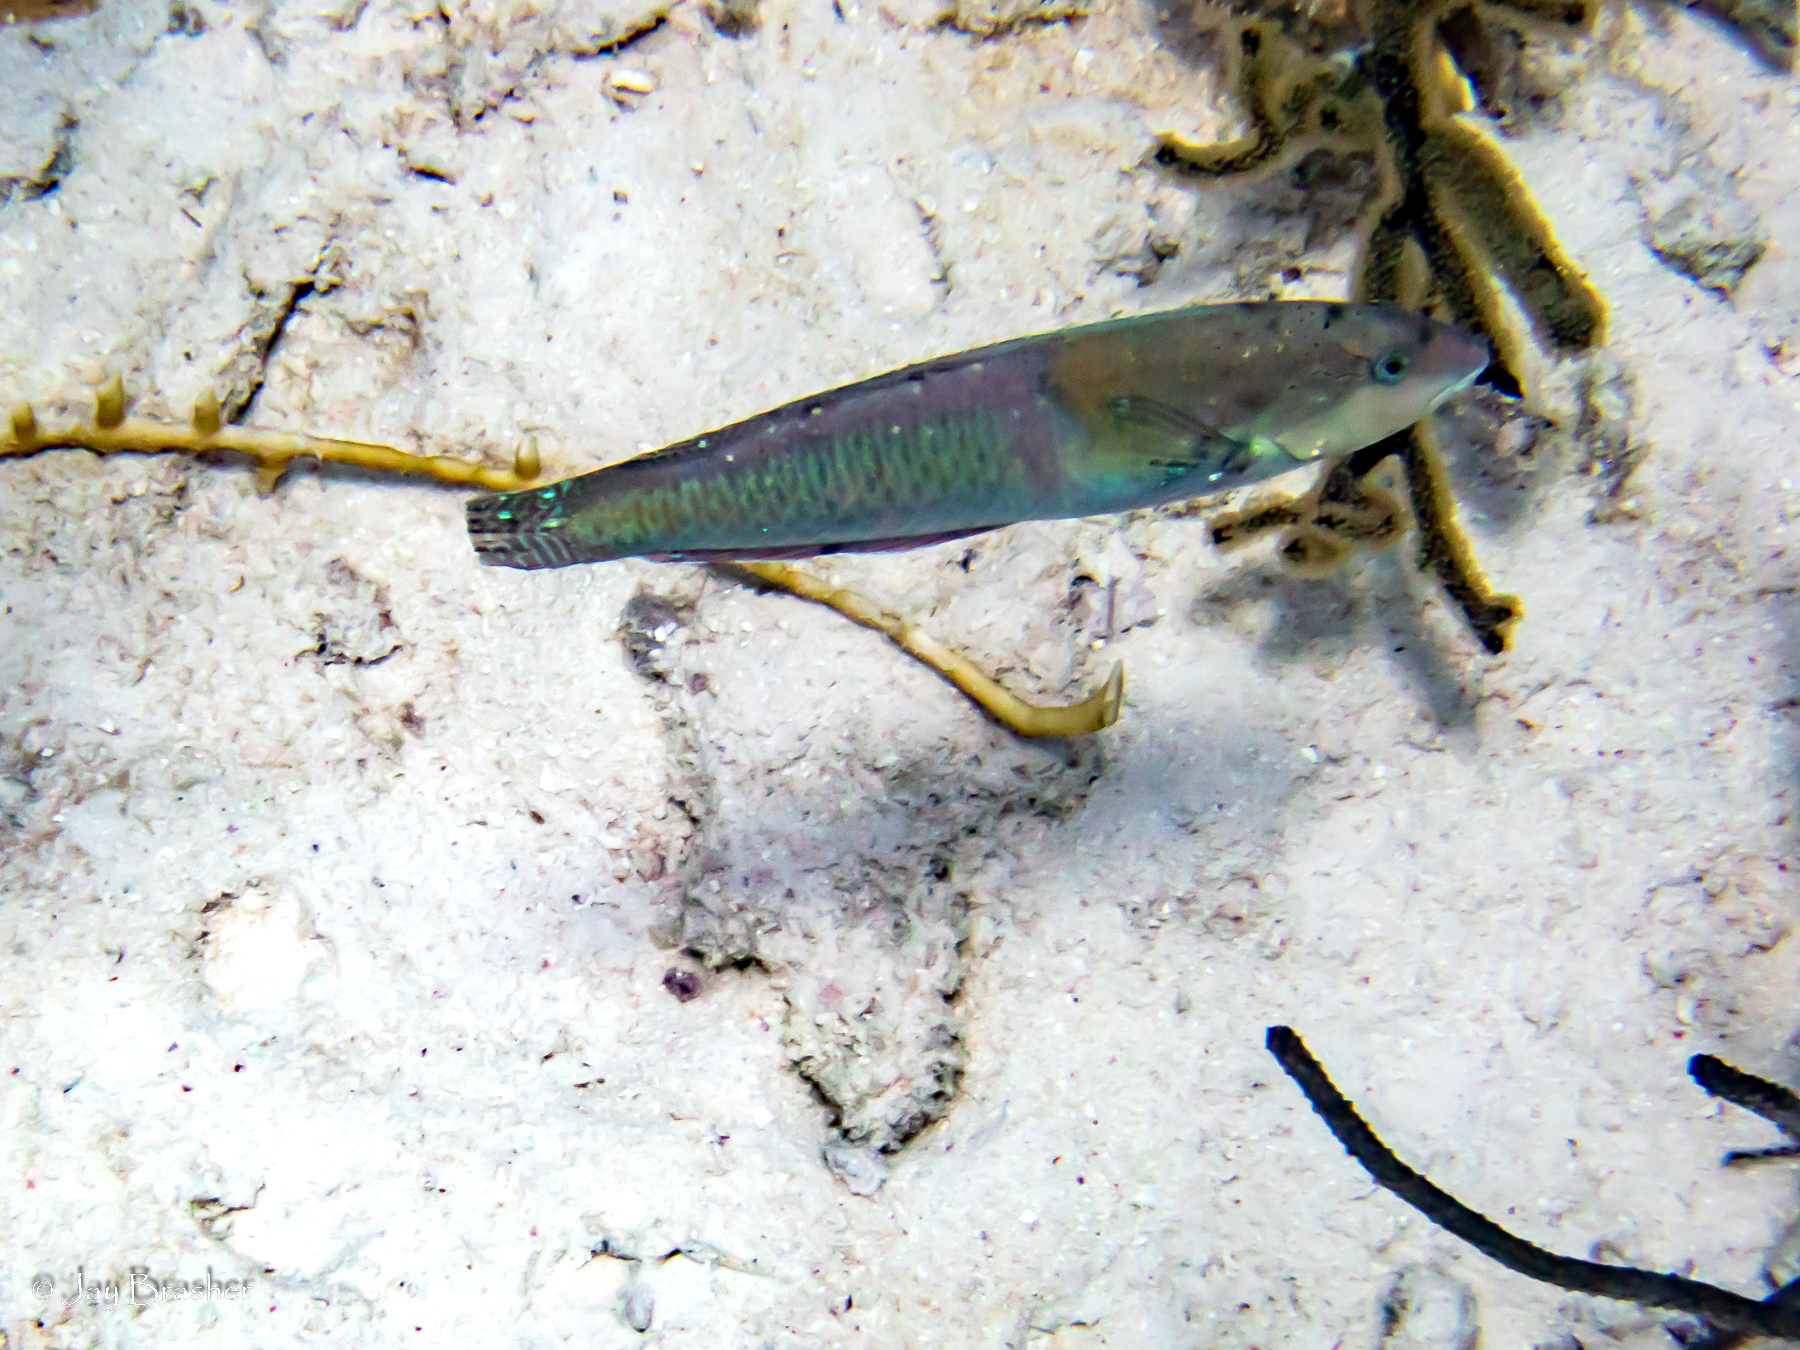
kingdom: Animalia
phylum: Chordata
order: Perciformes
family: Labridae
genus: Halichoeres
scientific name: Halichoeres garnoti
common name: Yellowhead wrasse
